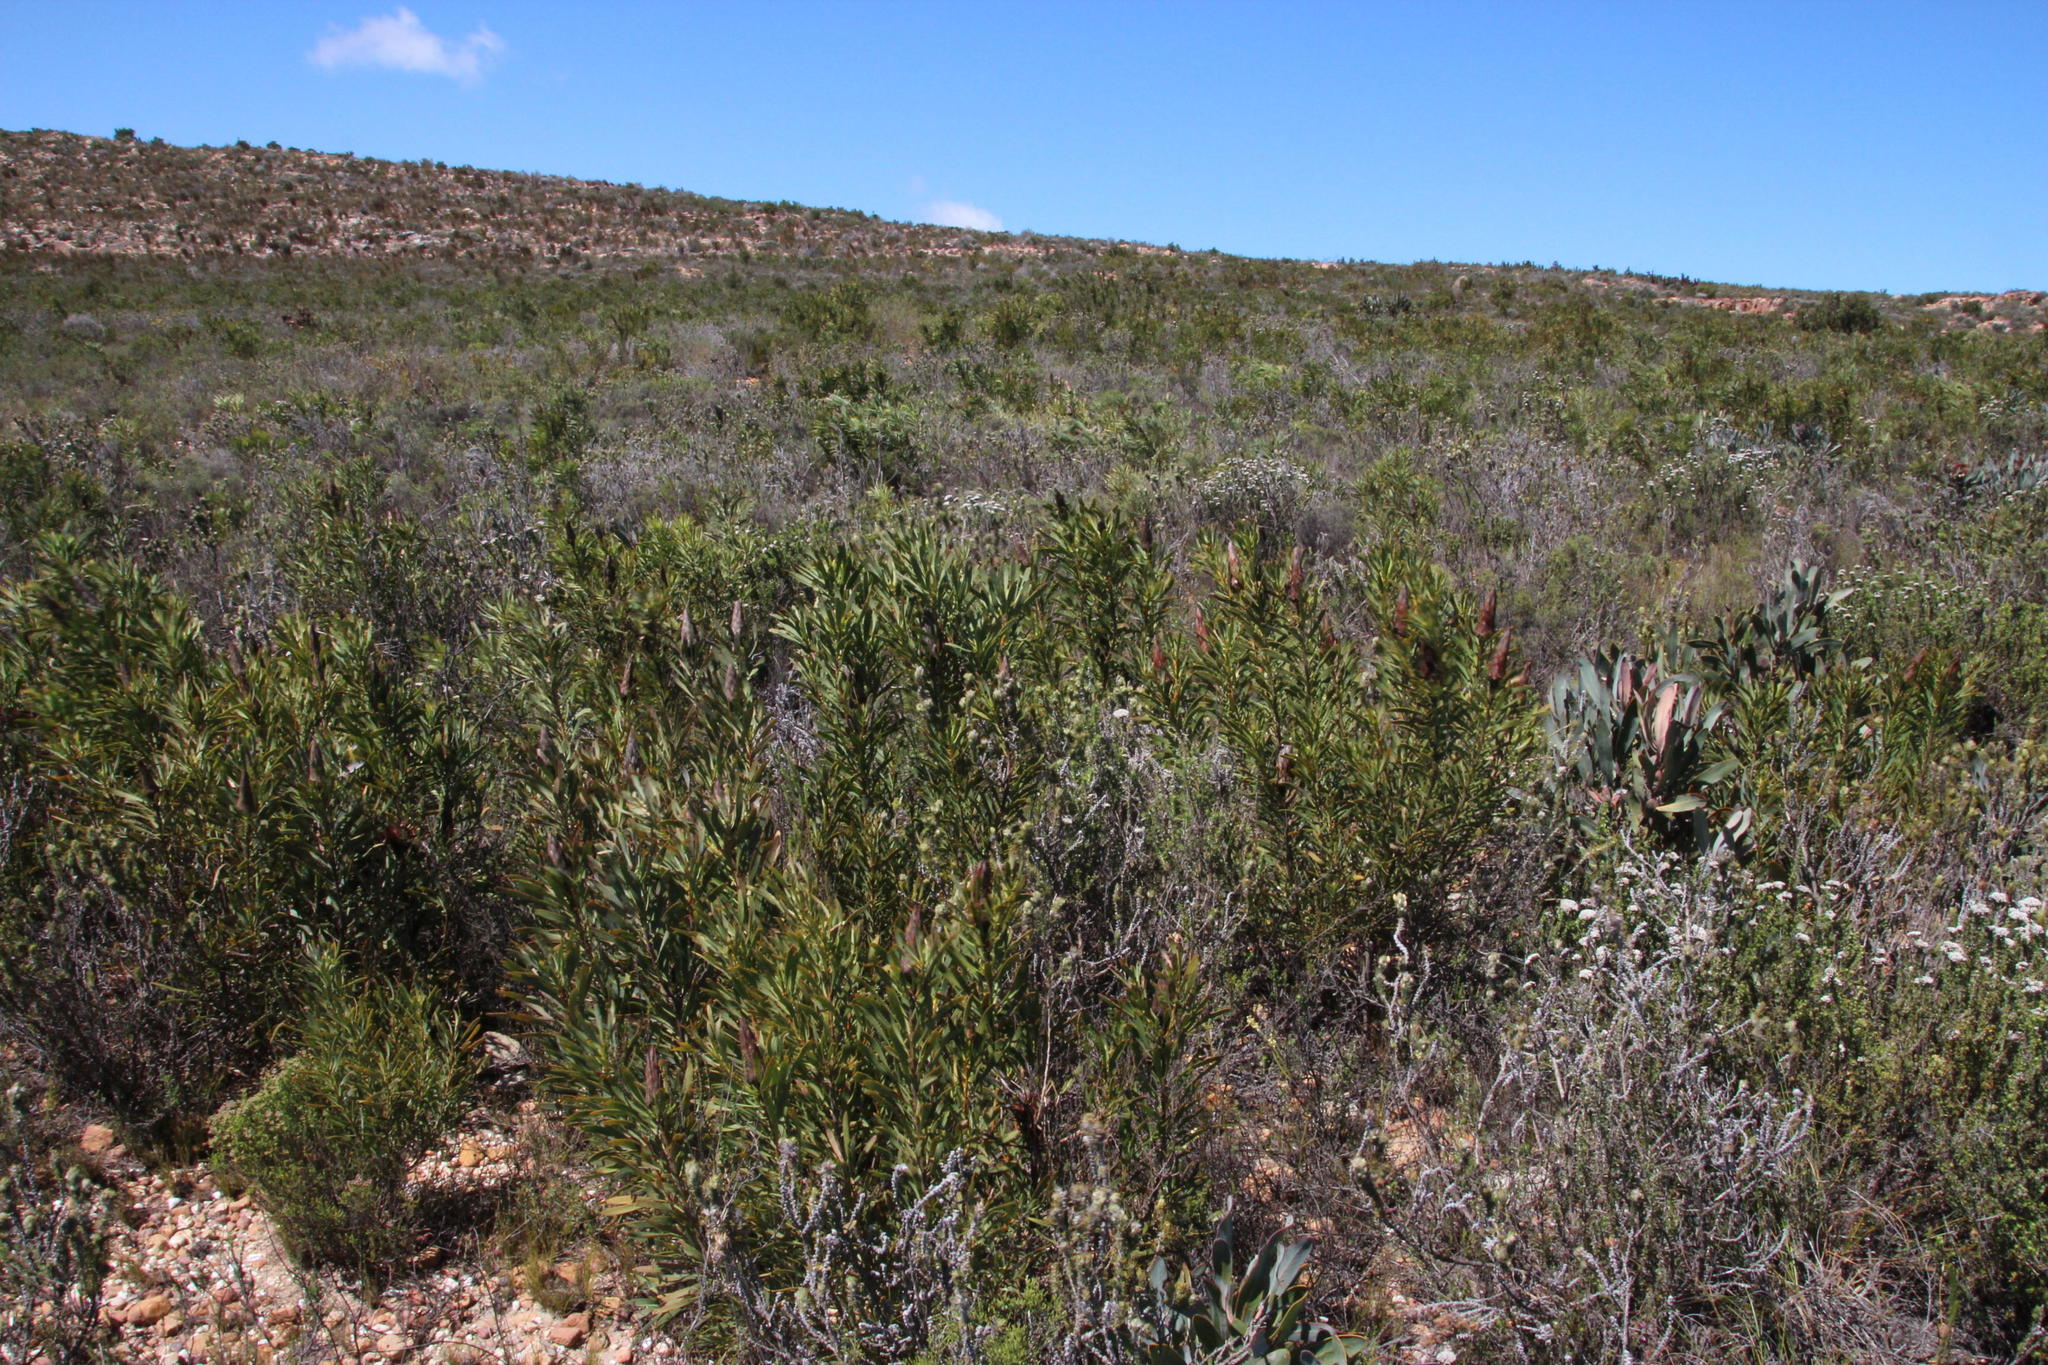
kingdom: Plantae
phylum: Tracheophyta
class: Magnoliopsida
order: Proteales
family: Proteaceae
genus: Protea
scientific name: Protea repens
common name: Sugarbush
